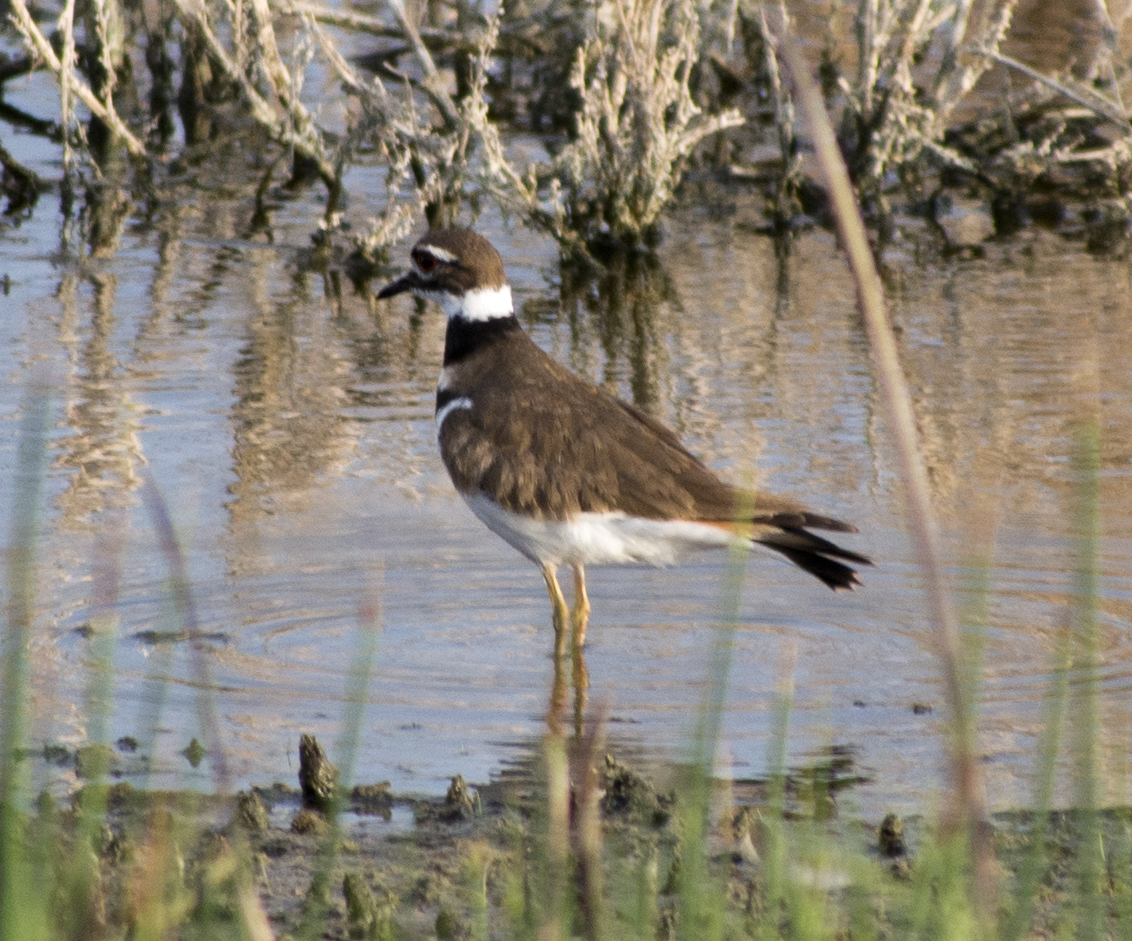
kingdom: Animalia
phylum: Chordata
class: Aves
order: Charadriiformes
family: Charadriidae
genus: Charadrius
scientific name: Charadrius vociferus
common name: Killdeer
